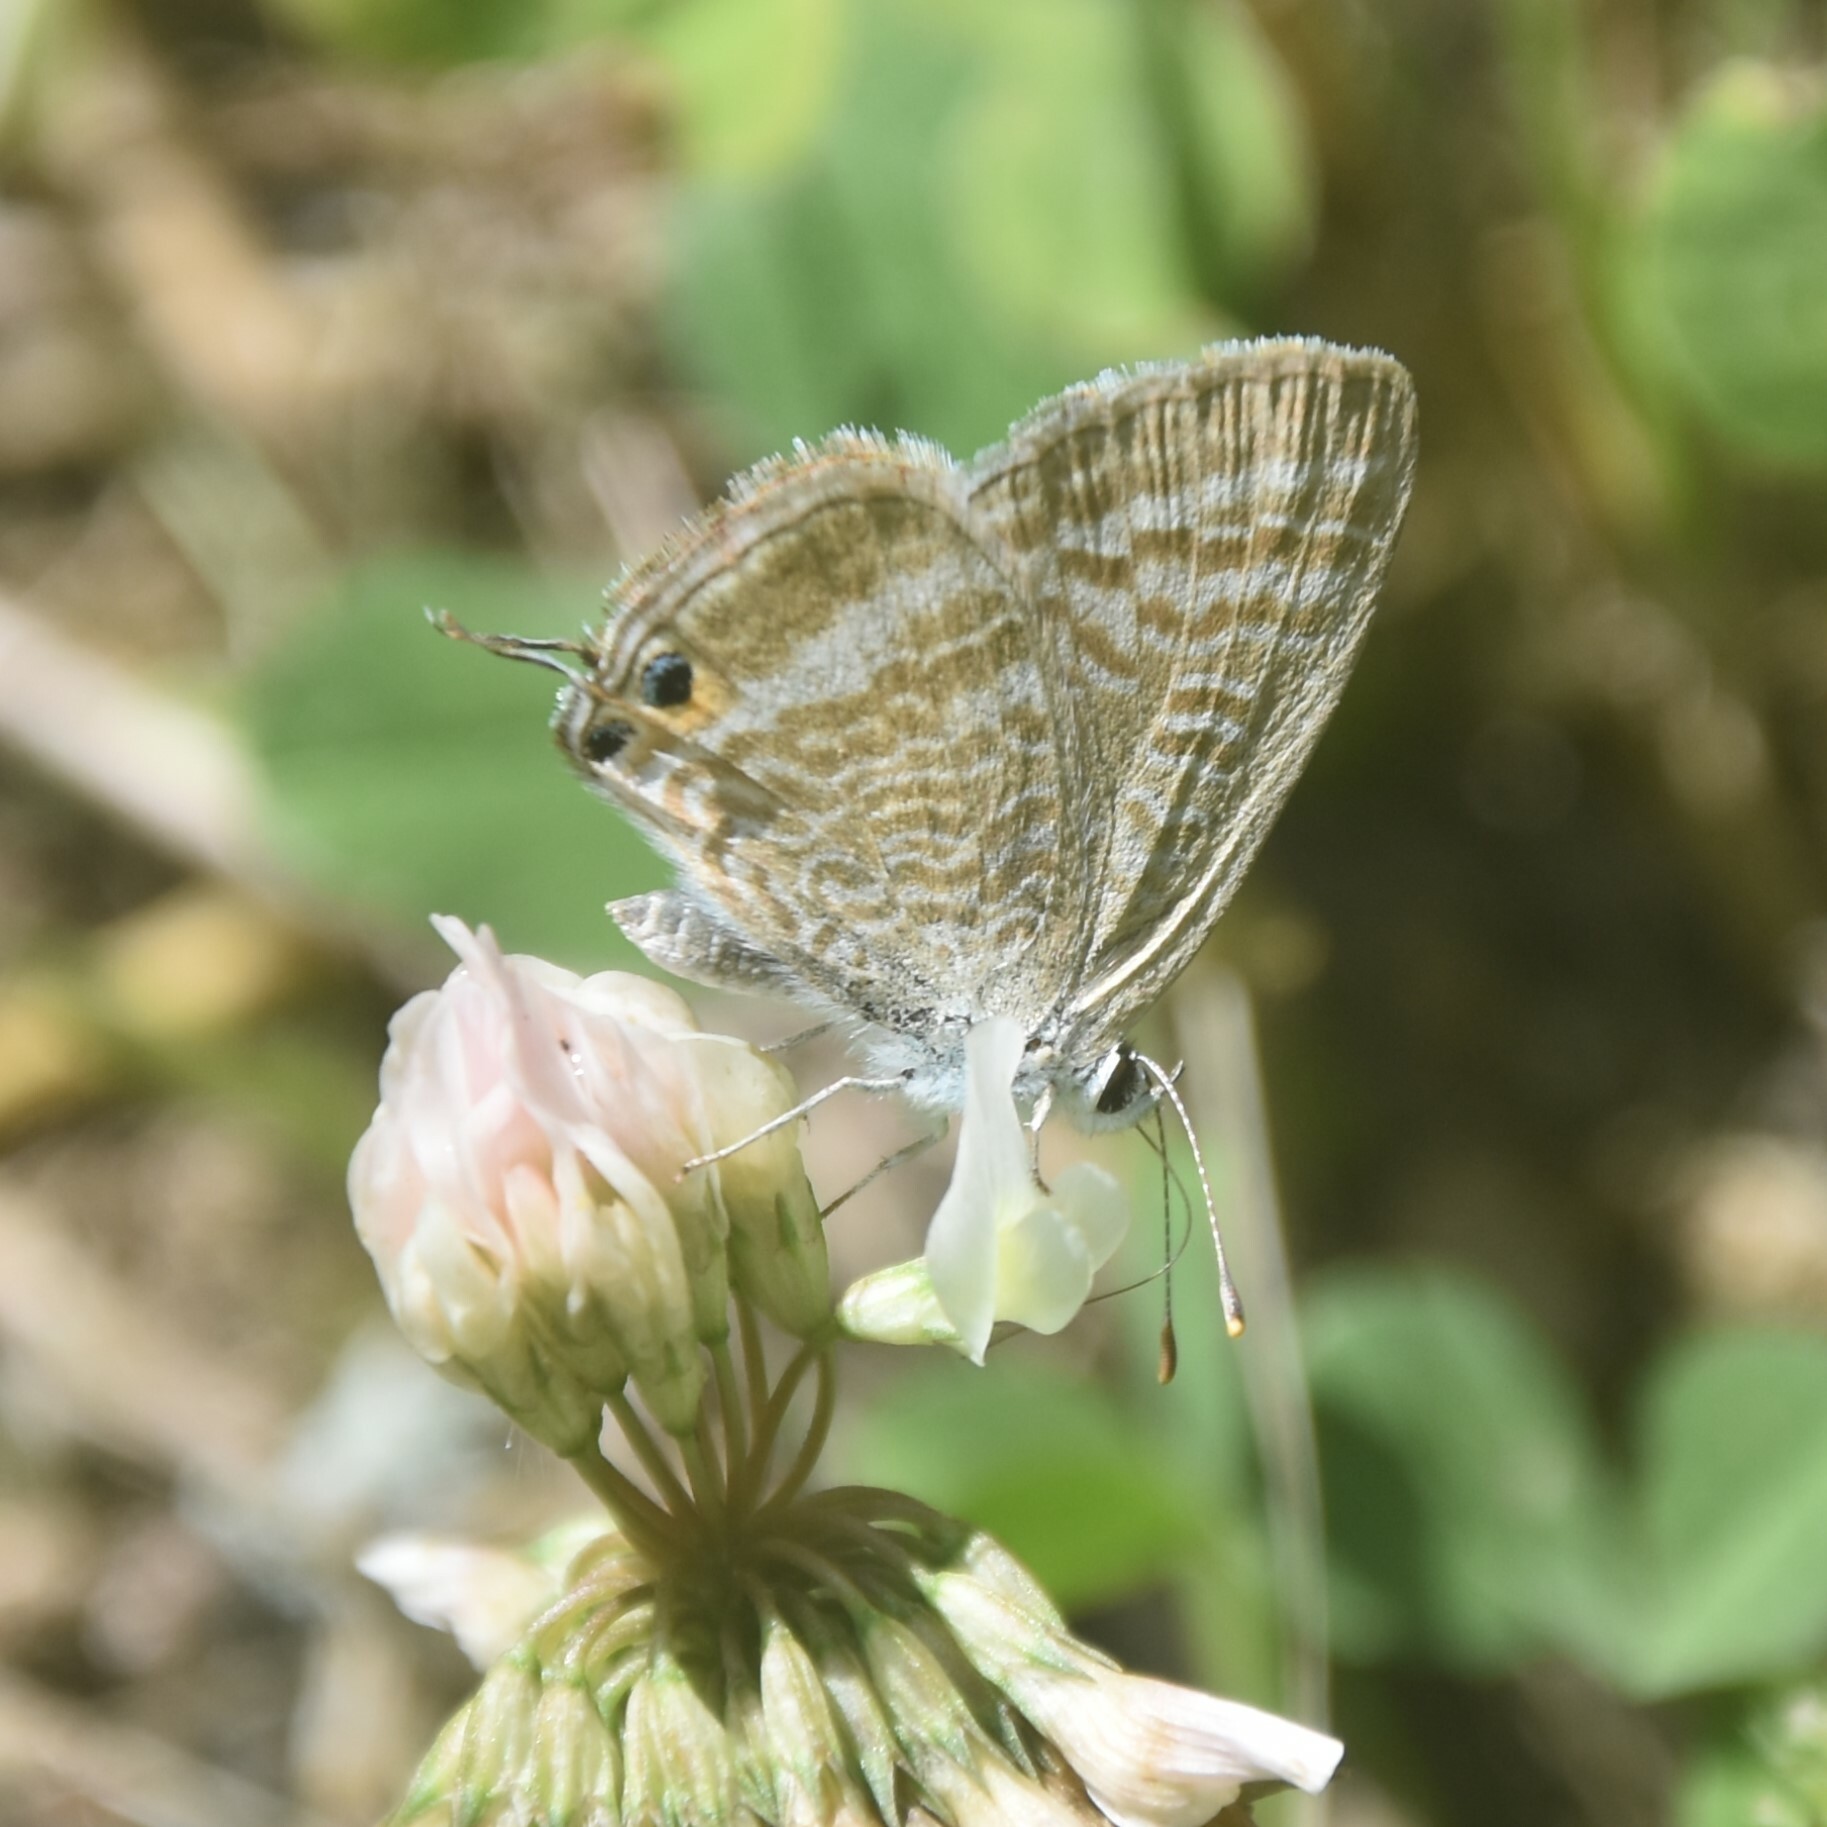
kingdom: Animalia
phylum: Arthropoda
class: Insecta
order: Lepidoptera
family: Lycaenidae
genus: Lampides
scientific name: Lampides boeticus
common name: Long-tailed blue
